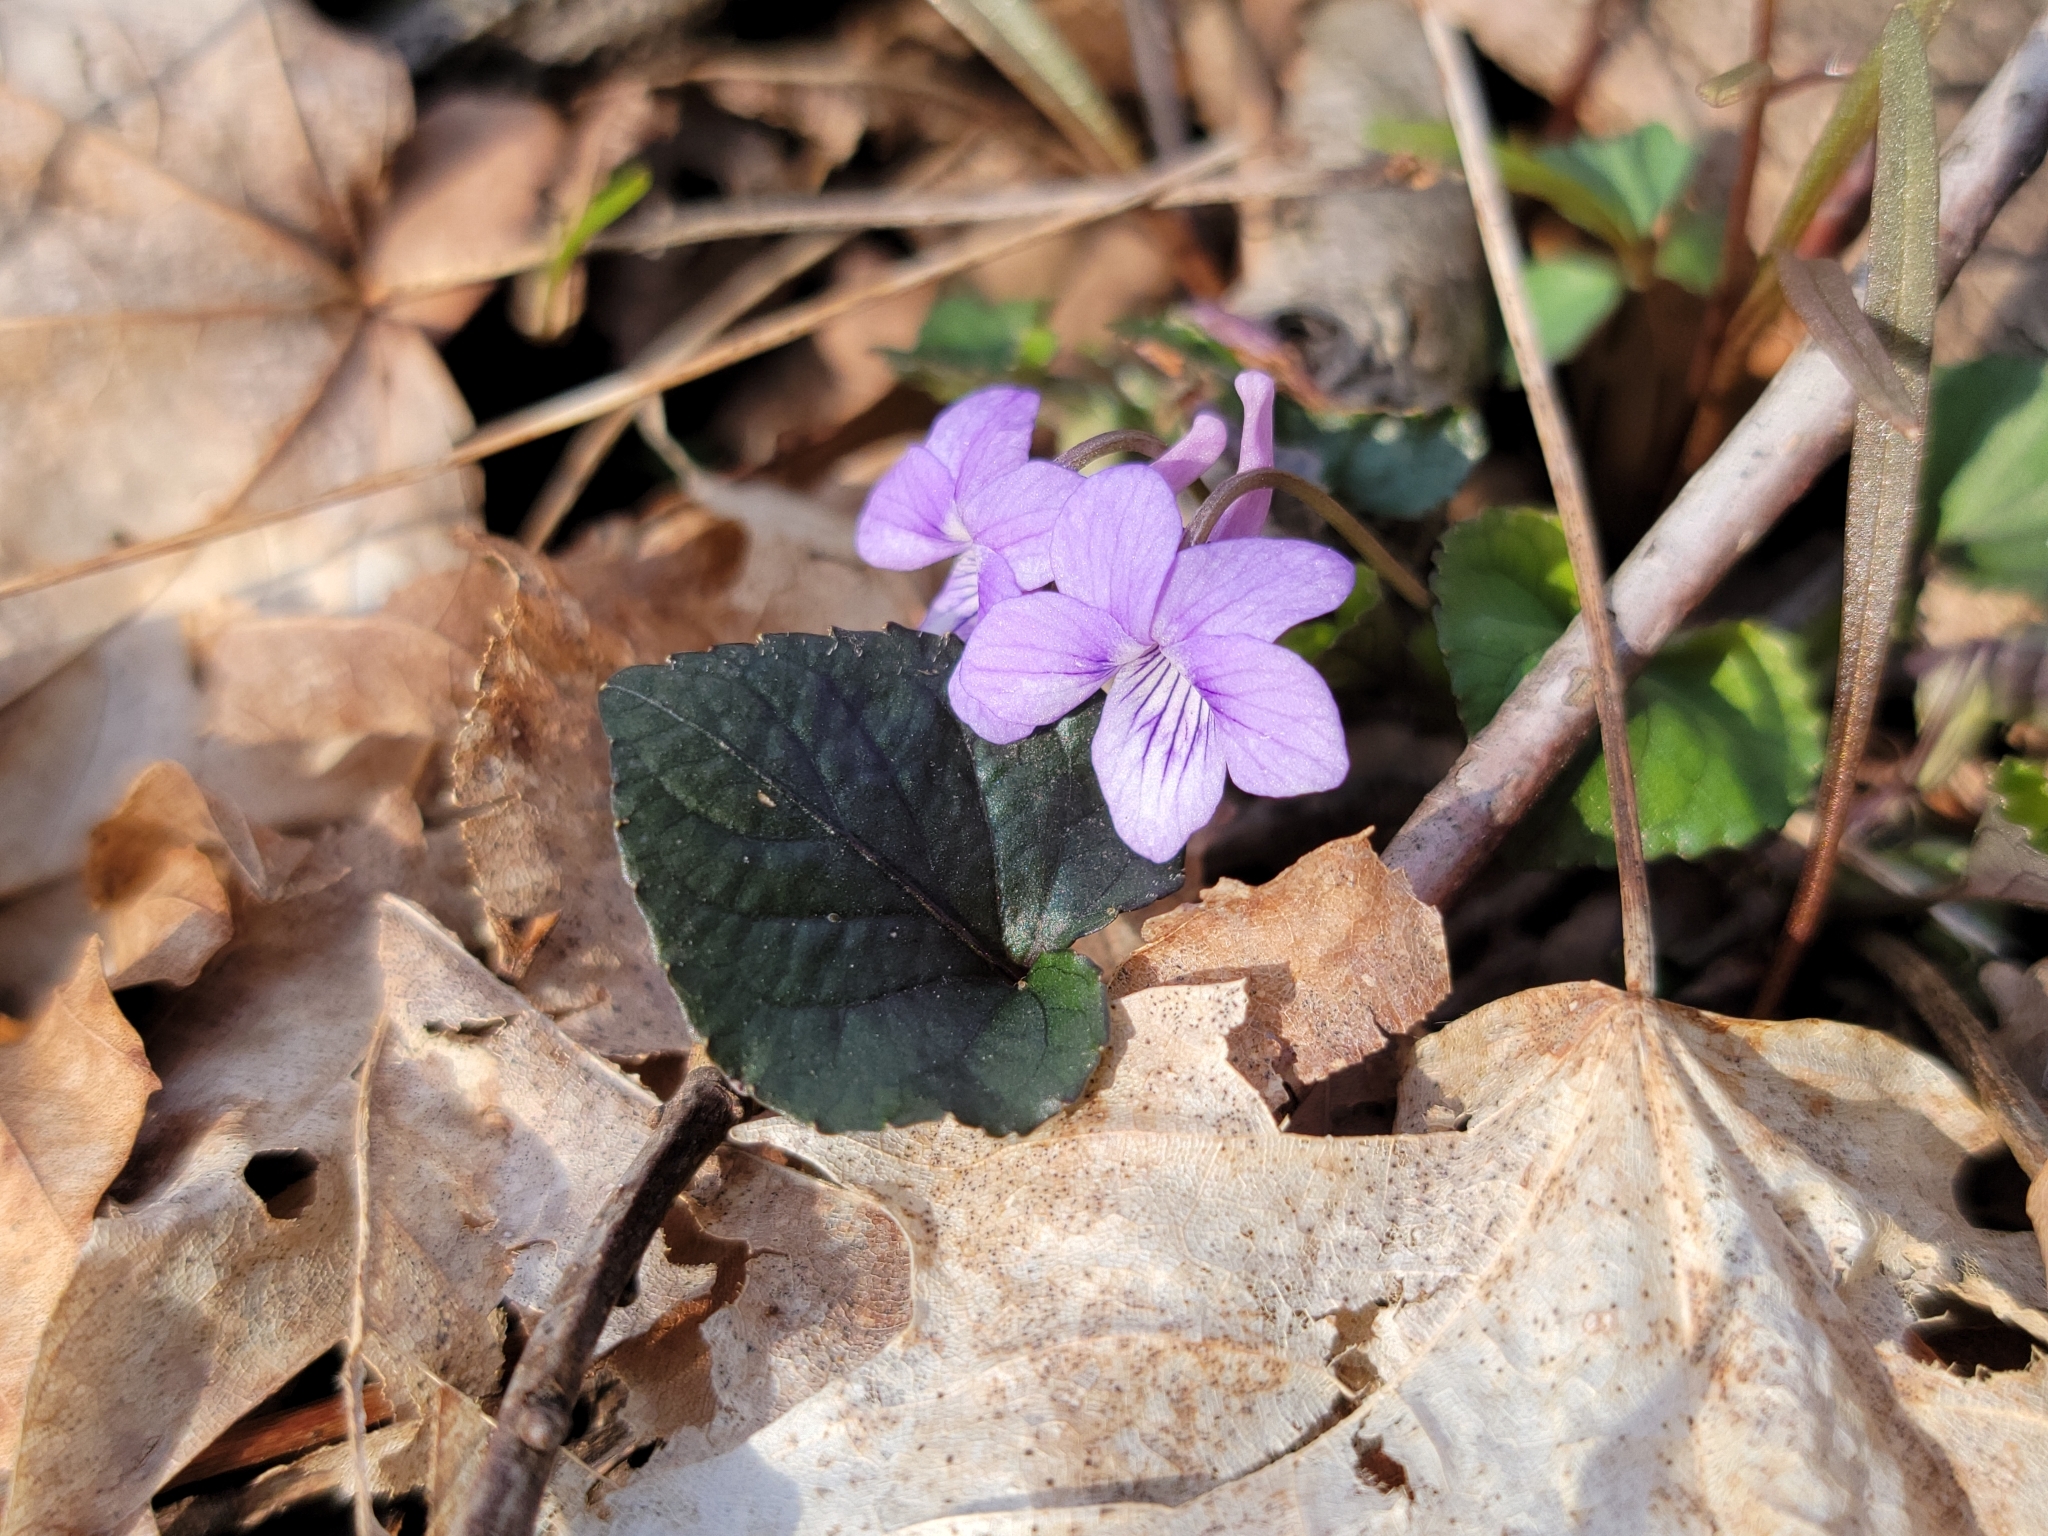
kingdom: Plantae
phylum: Tracheophyta
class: Magnoliopsida
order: Malpighiales
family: Violaceae
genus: Viola
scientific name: Viola rostrata
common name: Long-spur violet
